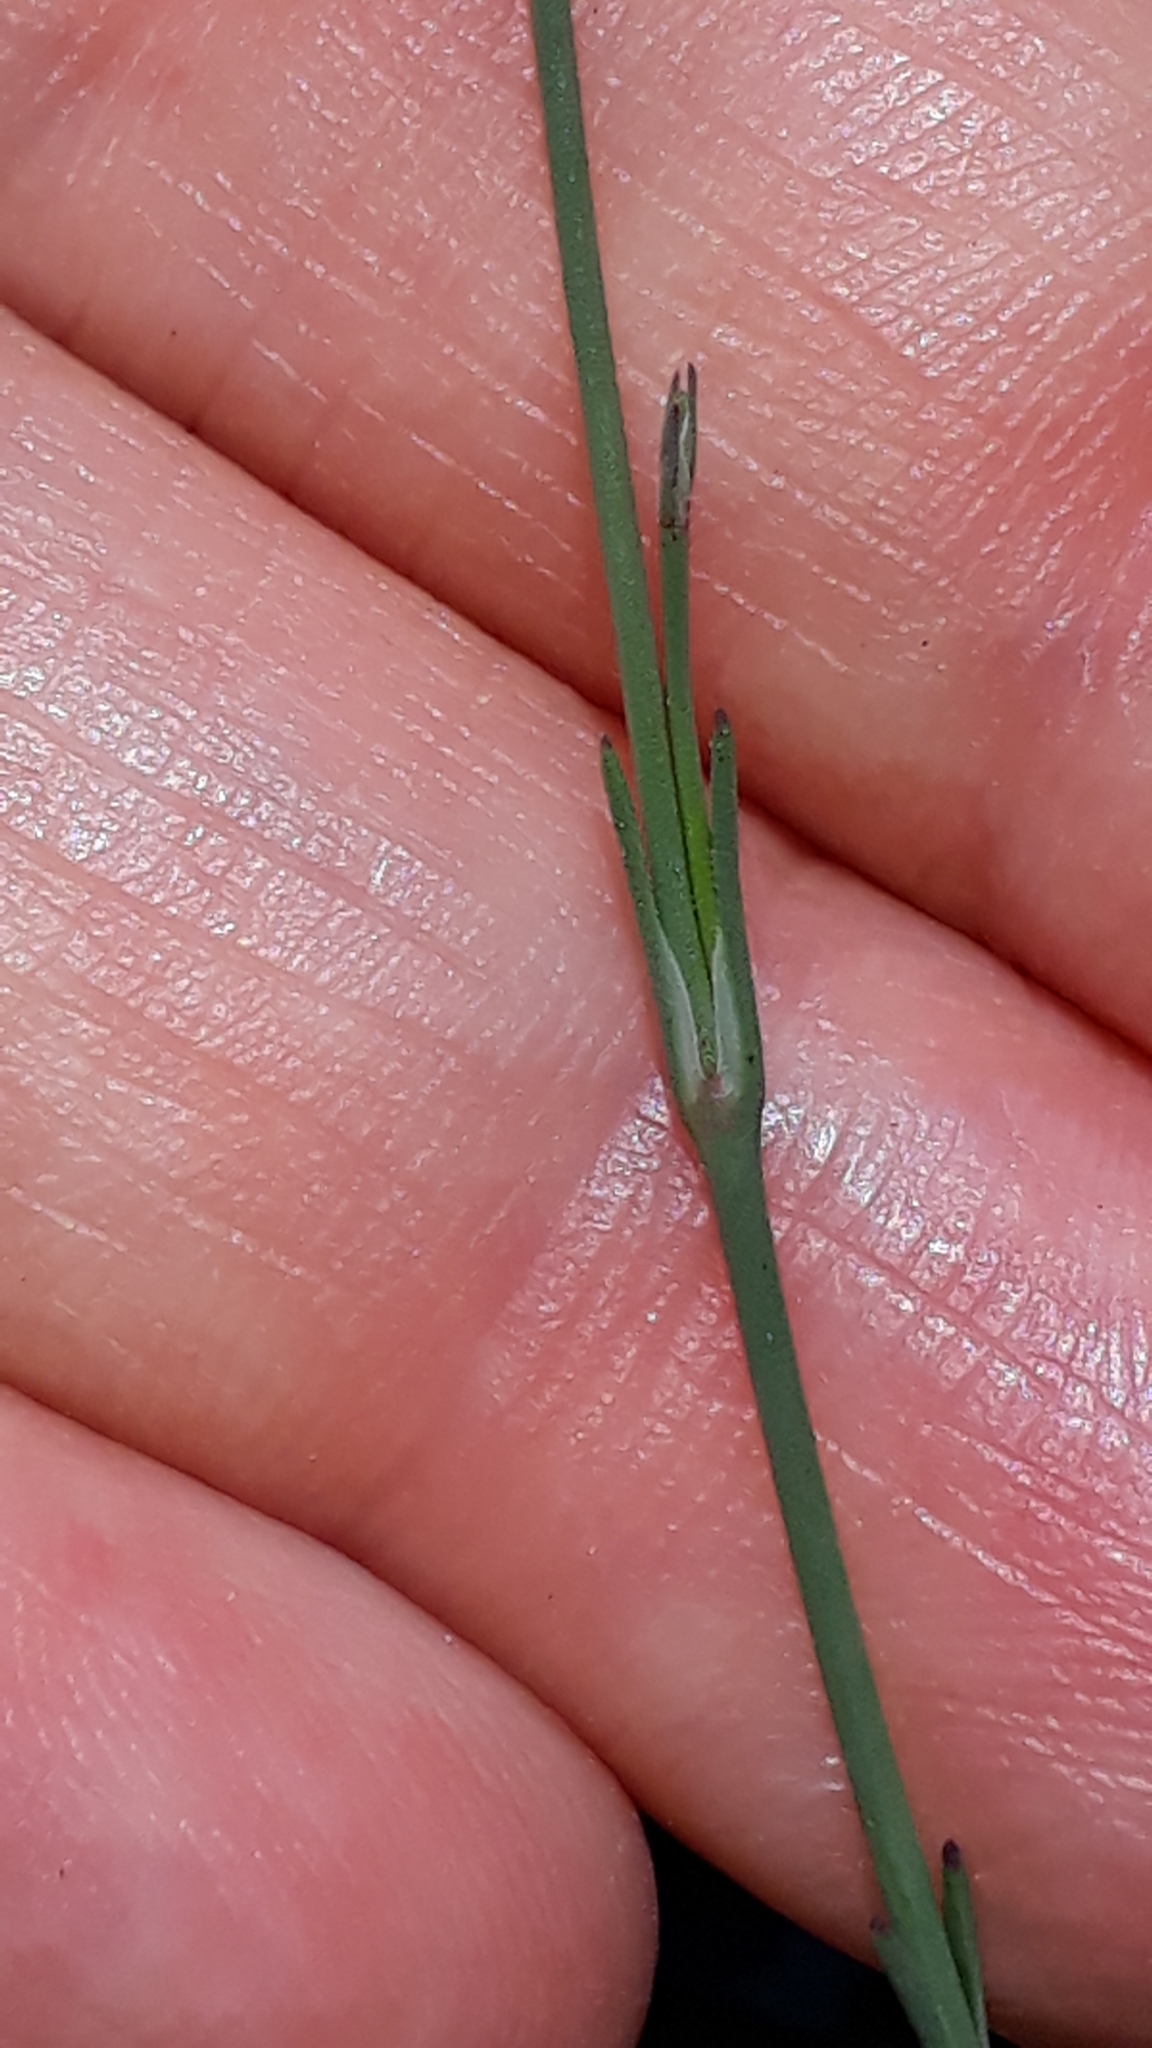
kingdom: Plantae
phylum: Tracheophyta
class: Magnoliopsida
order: Caryophyllales
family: Caryophyllaceae
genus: Petrorhagia
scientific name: Petrorhagia saxifraga
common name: Tunicflower
